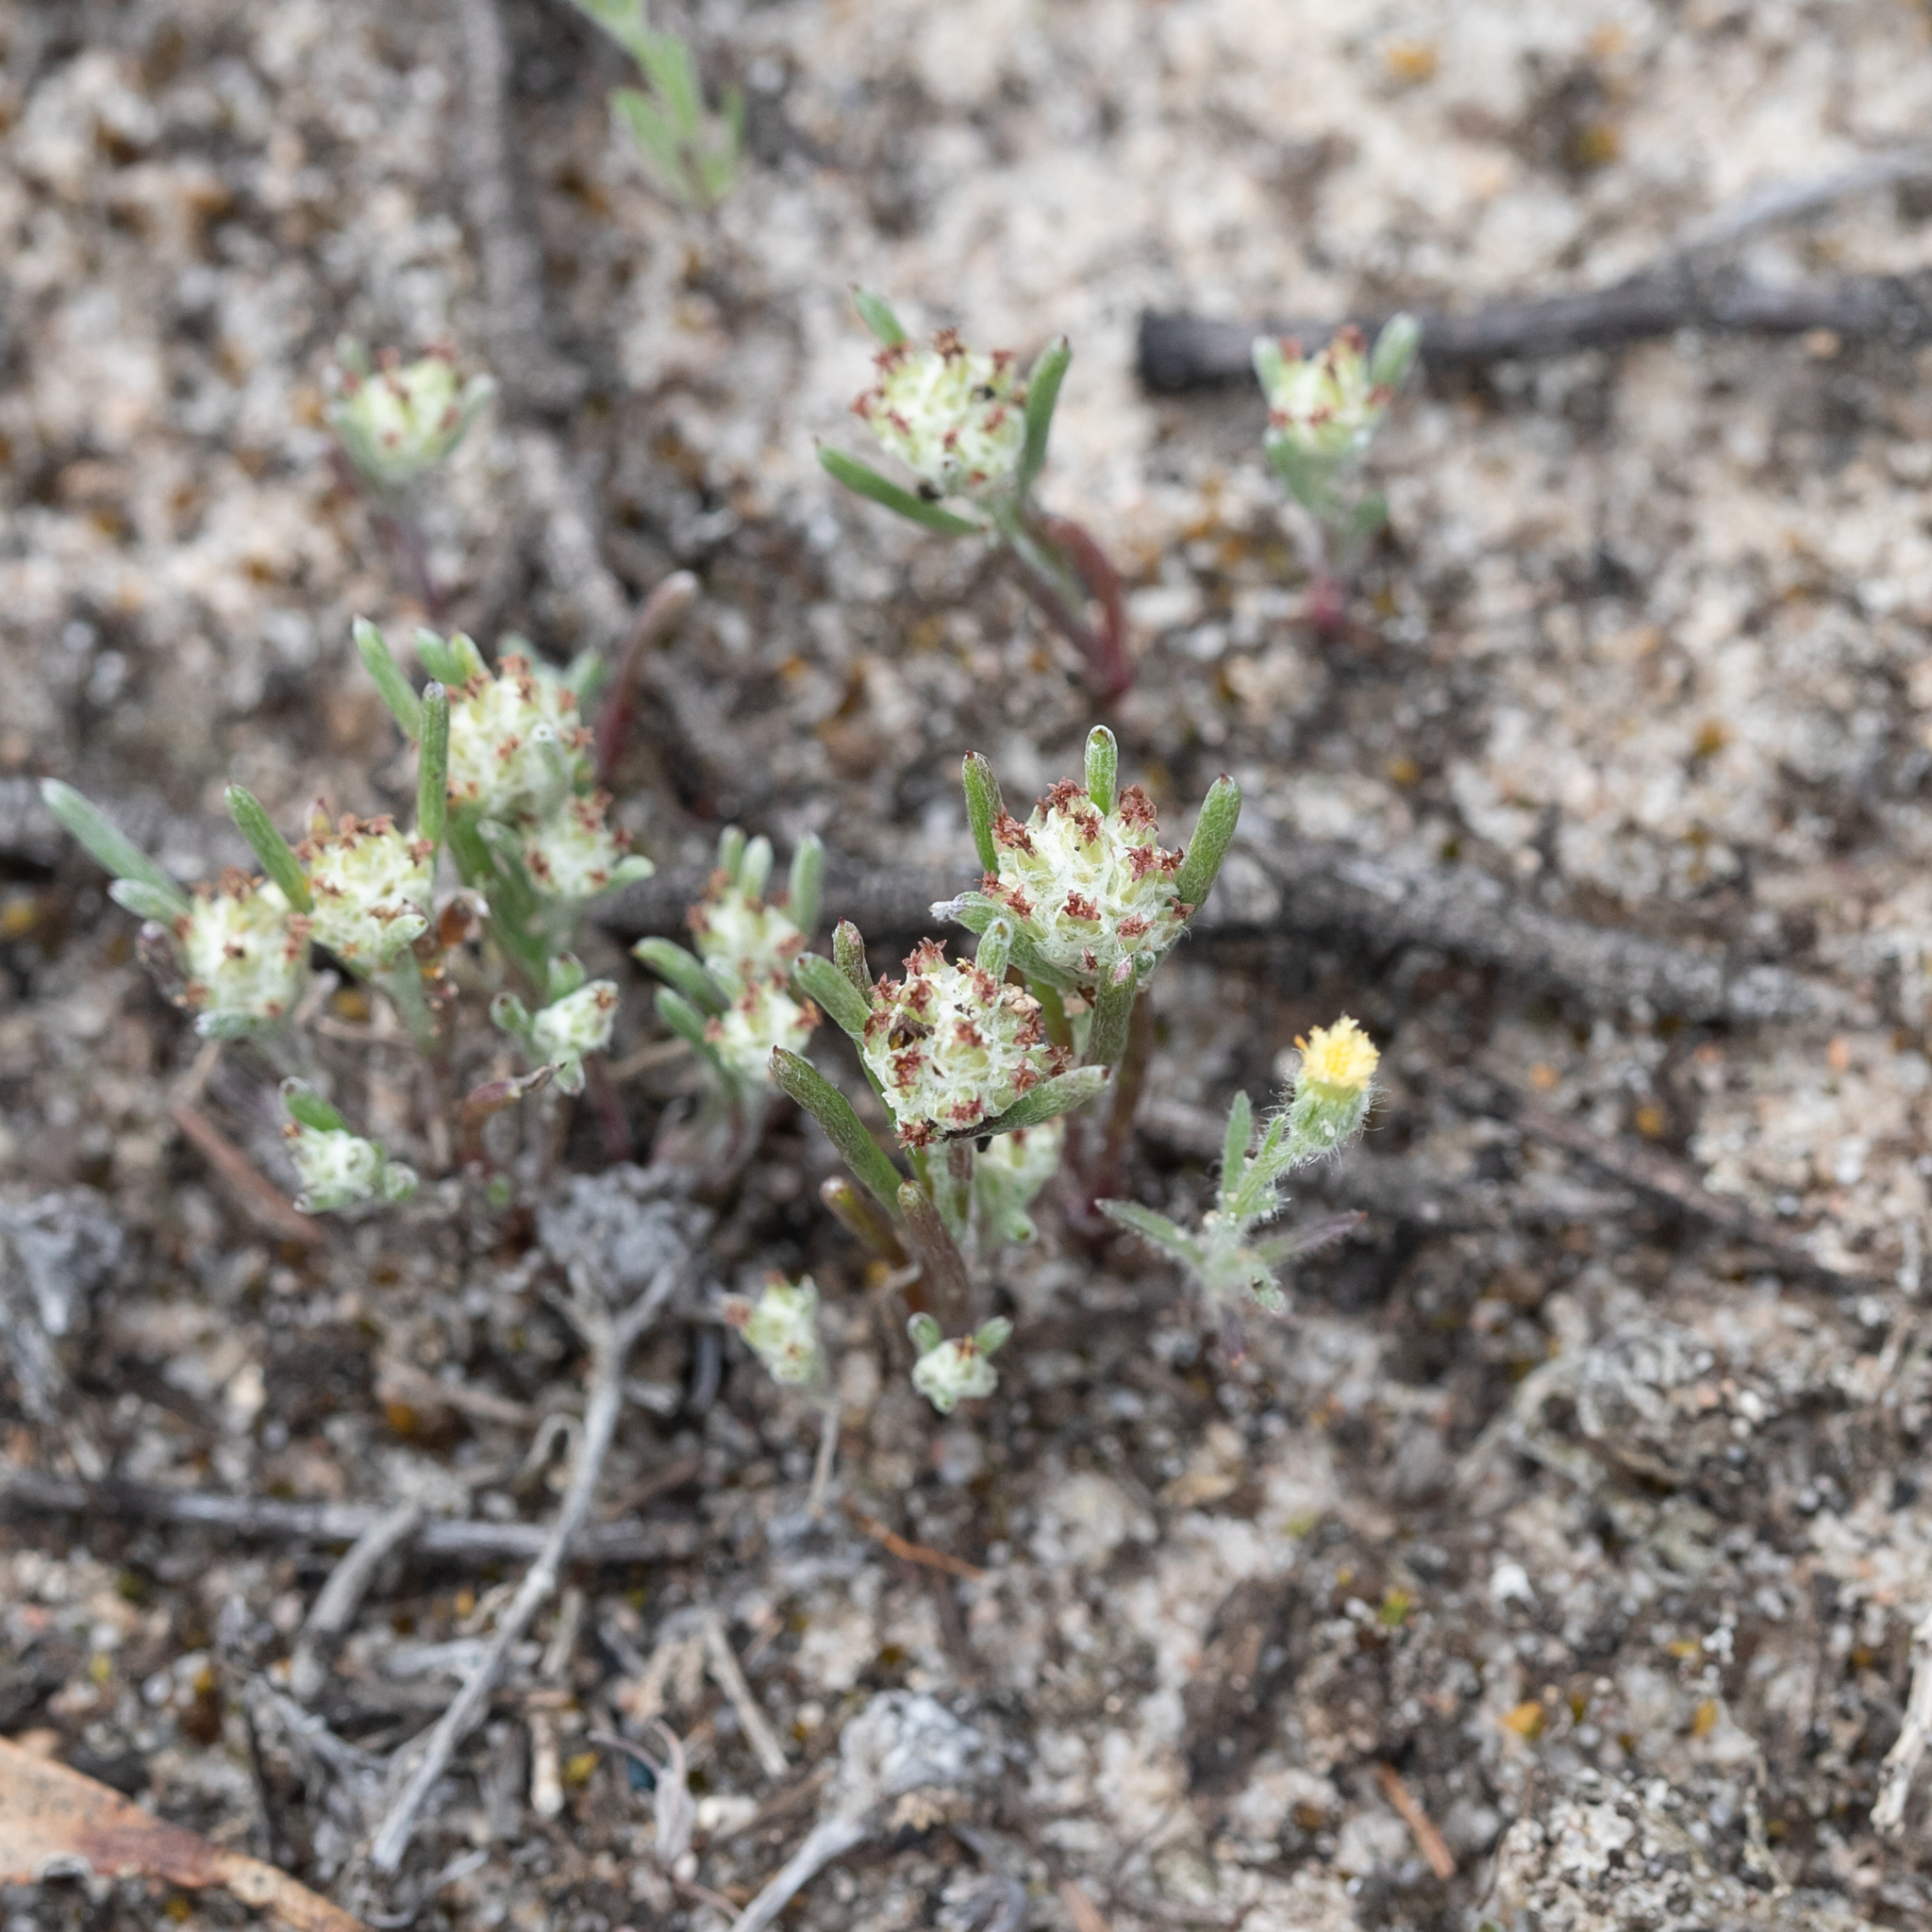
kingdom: Plantae
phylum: Tracheophyta
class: Magnoliopsida
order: Asterales
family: Asteraceae
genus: Blennospora
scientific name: Blennospora drummondii
